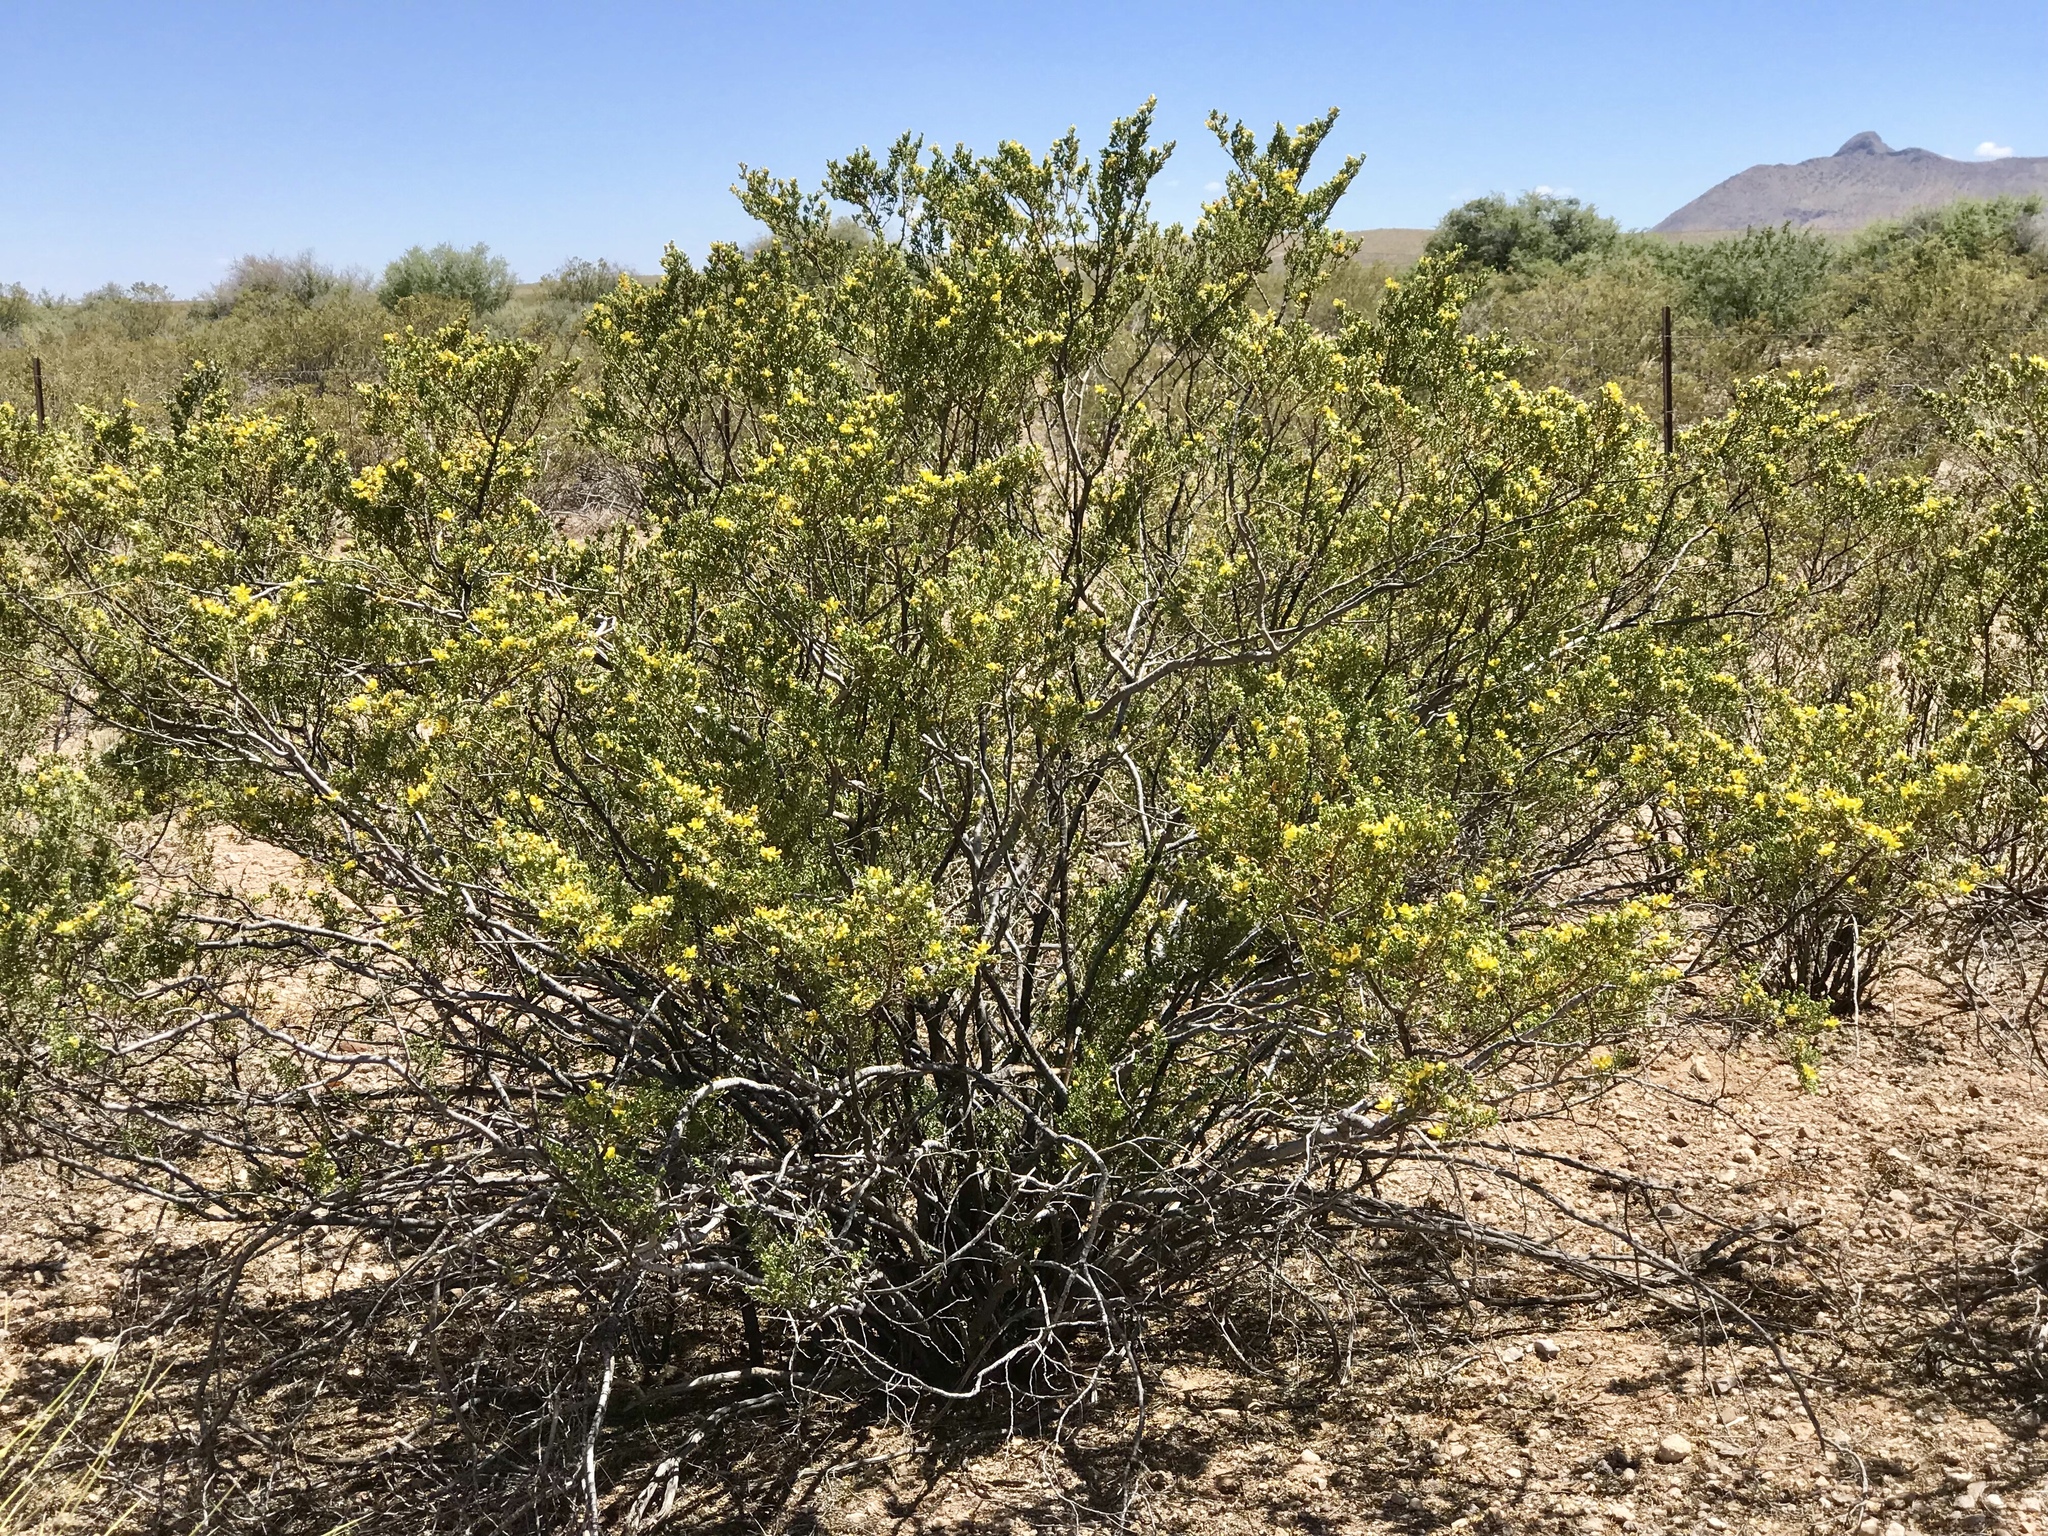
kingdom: Plantae
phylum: Tracheophyta
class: Magnoliopsida
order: Zygophyllales
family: Zygophyllaceae
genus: Larrea
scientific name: Larrea tridentata
